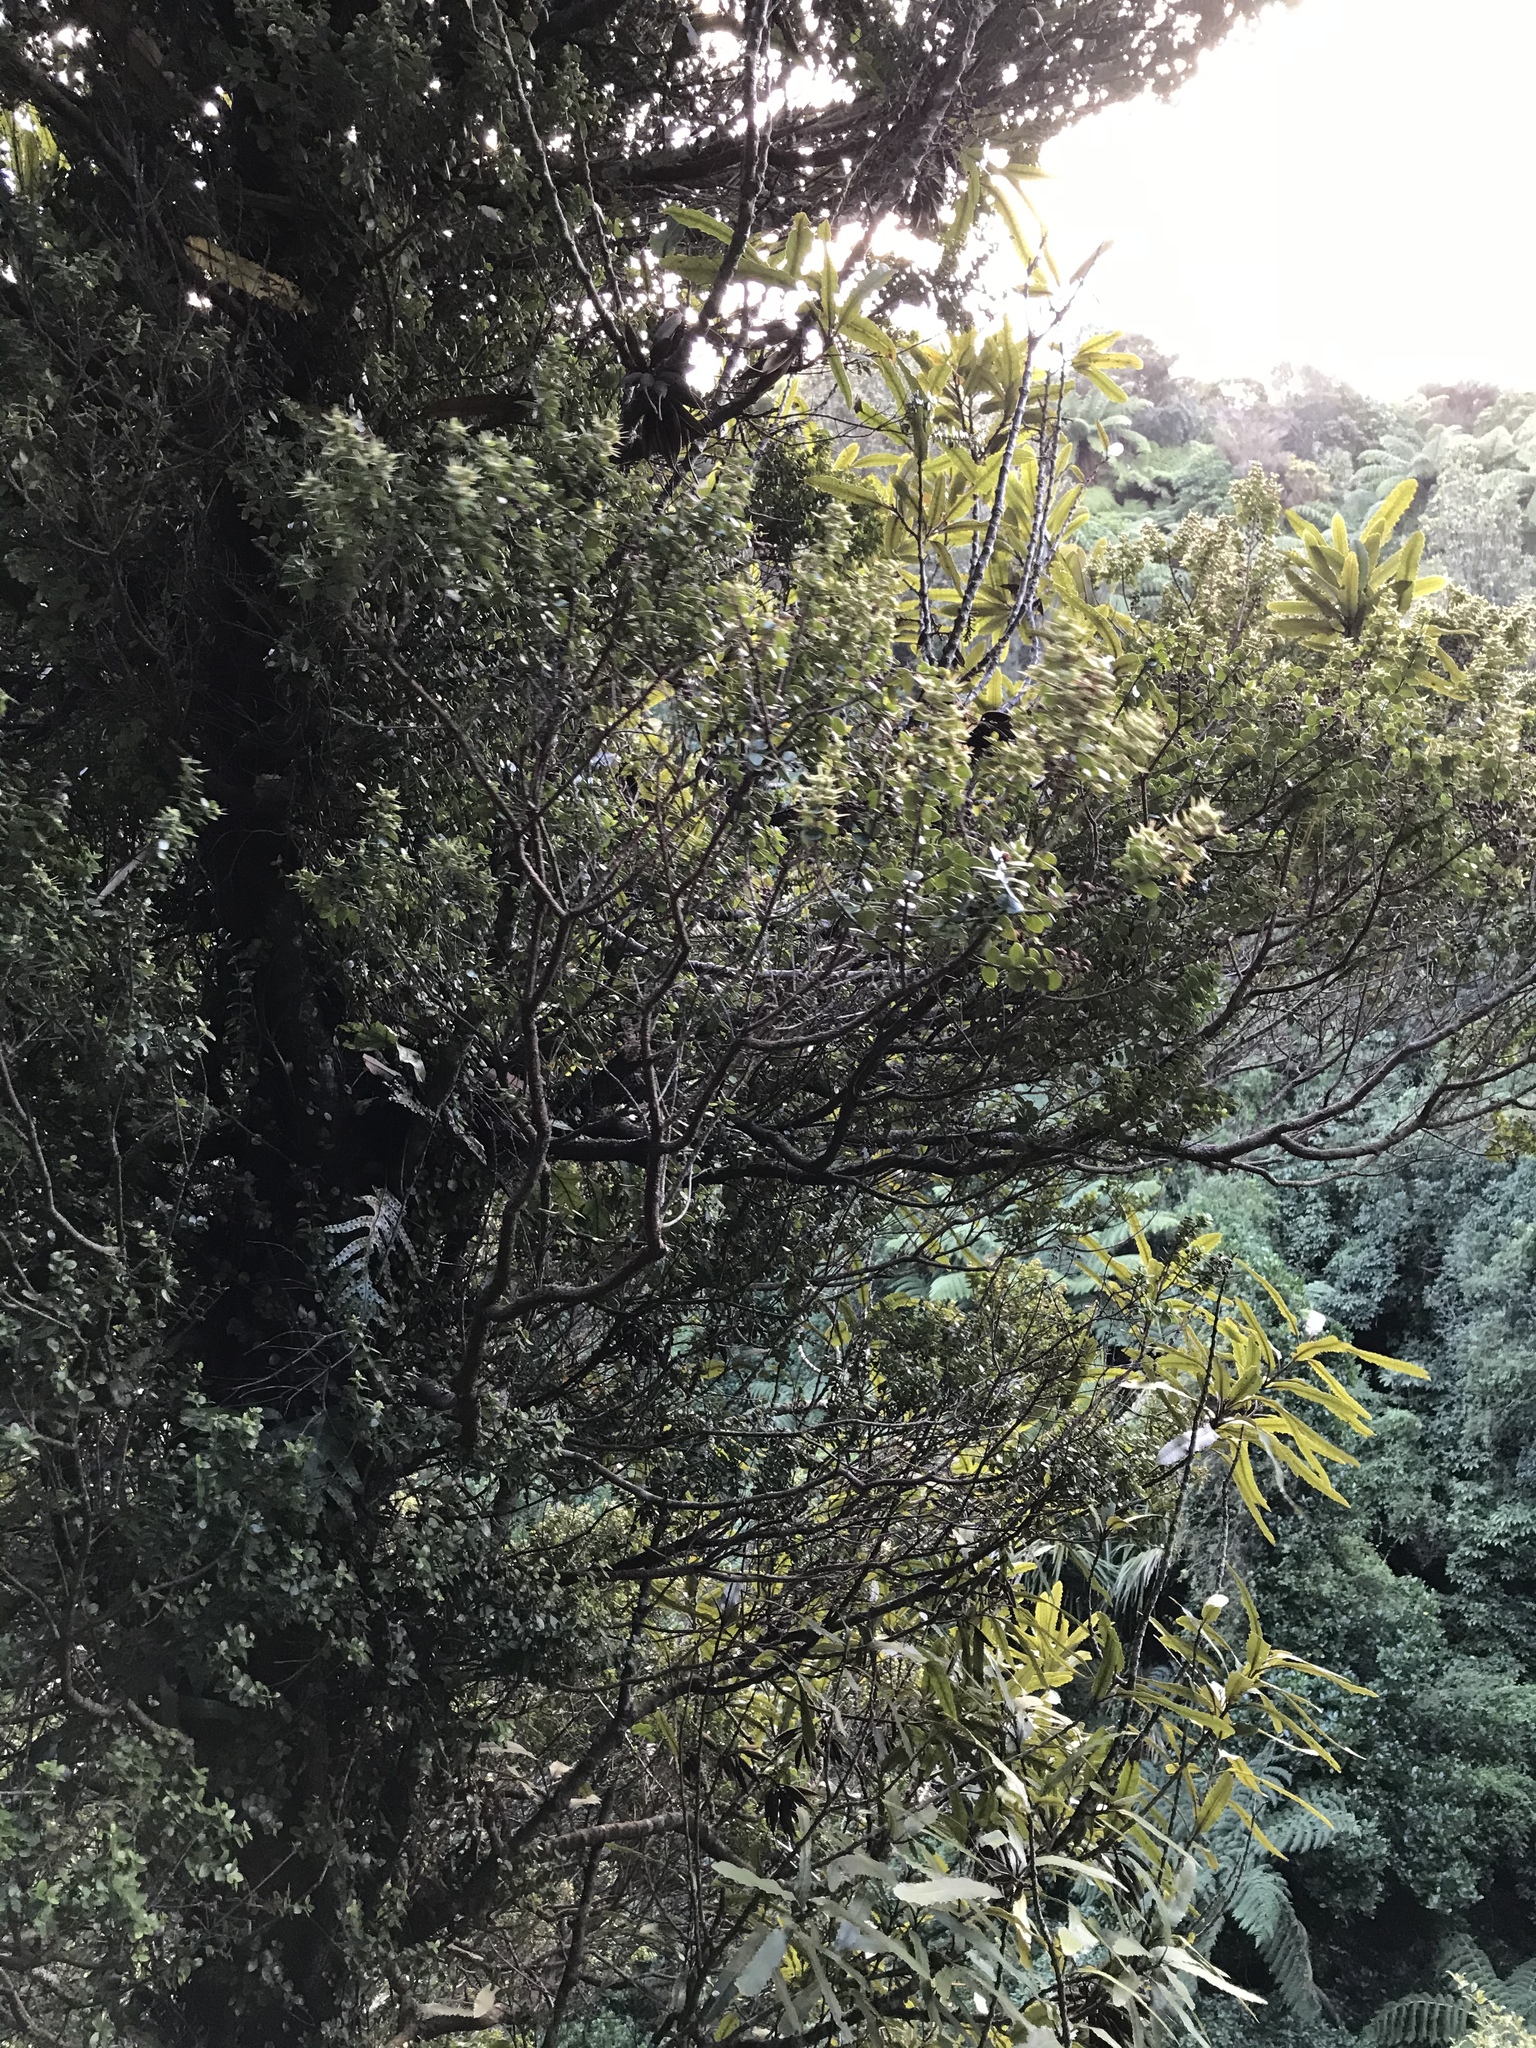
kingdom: Plantae
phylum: Tracheophyta
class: Magnoliopsida
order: Myrtales
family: Myrtaceae
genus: Metrosideros
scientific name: Metrosideros perforata
